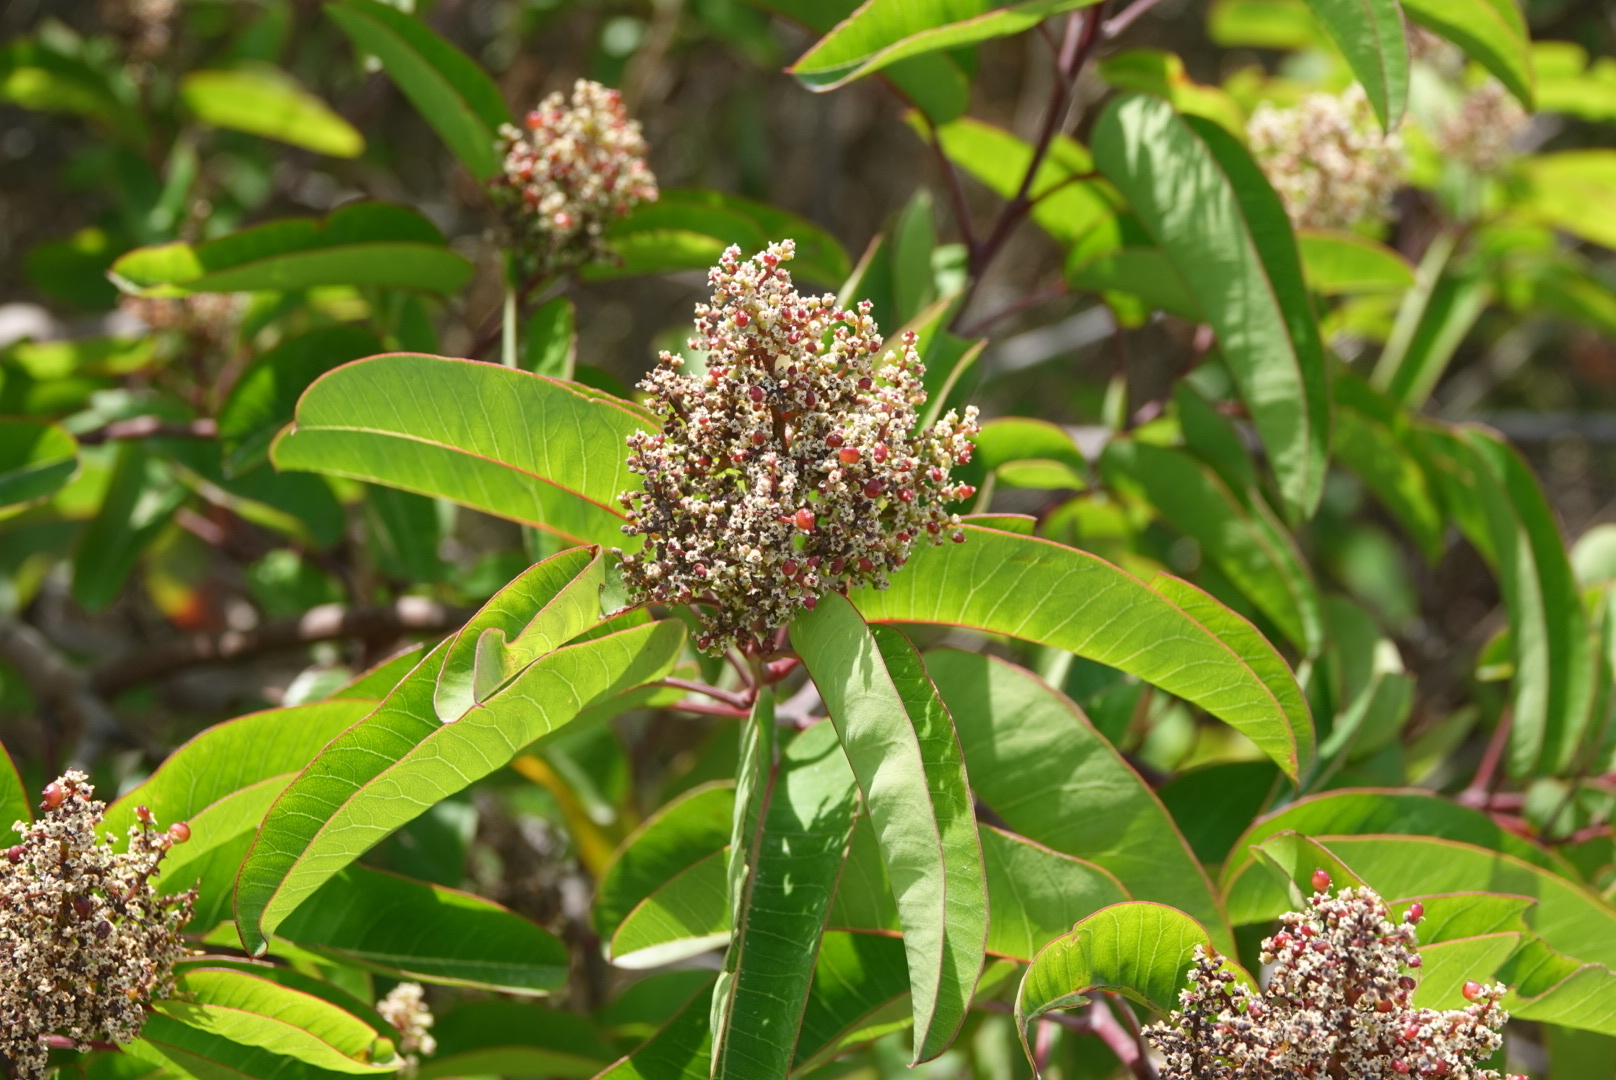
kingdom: Plantae
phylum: Tracheophyta
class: Magnoliopsida
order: Sapindales
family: Anacardiaceae
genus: Malosma
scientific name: Malosma laurina
